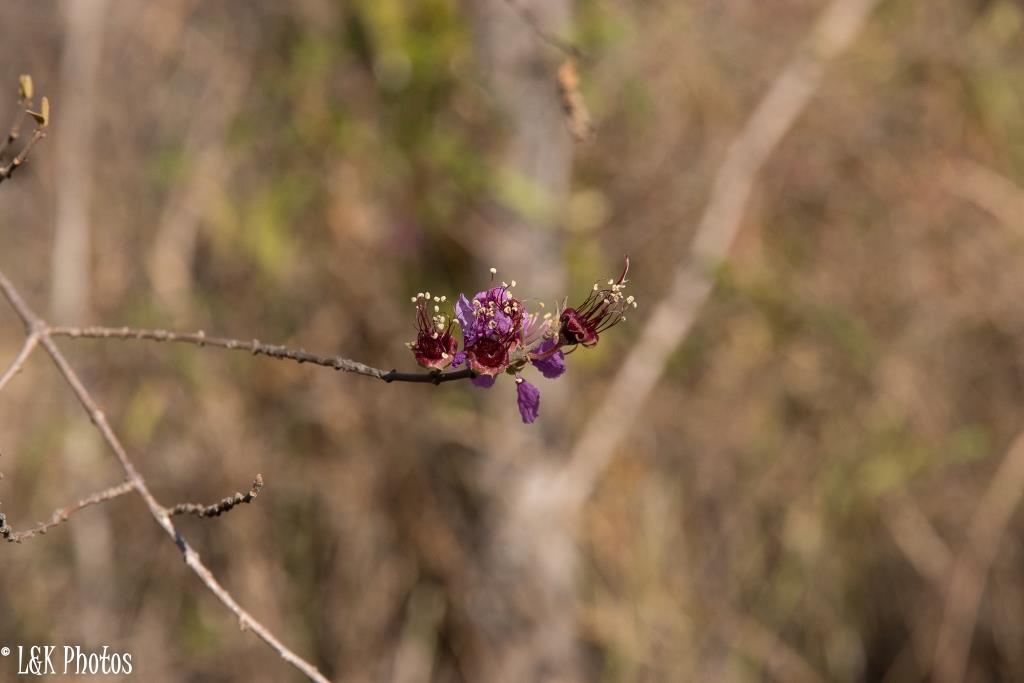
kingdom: Plantae
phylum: Tracheophyta
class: Magnoliopsida
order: Myrtales
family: Lythraceae
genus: Koehneria
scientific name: Koehneria madagascariensis
